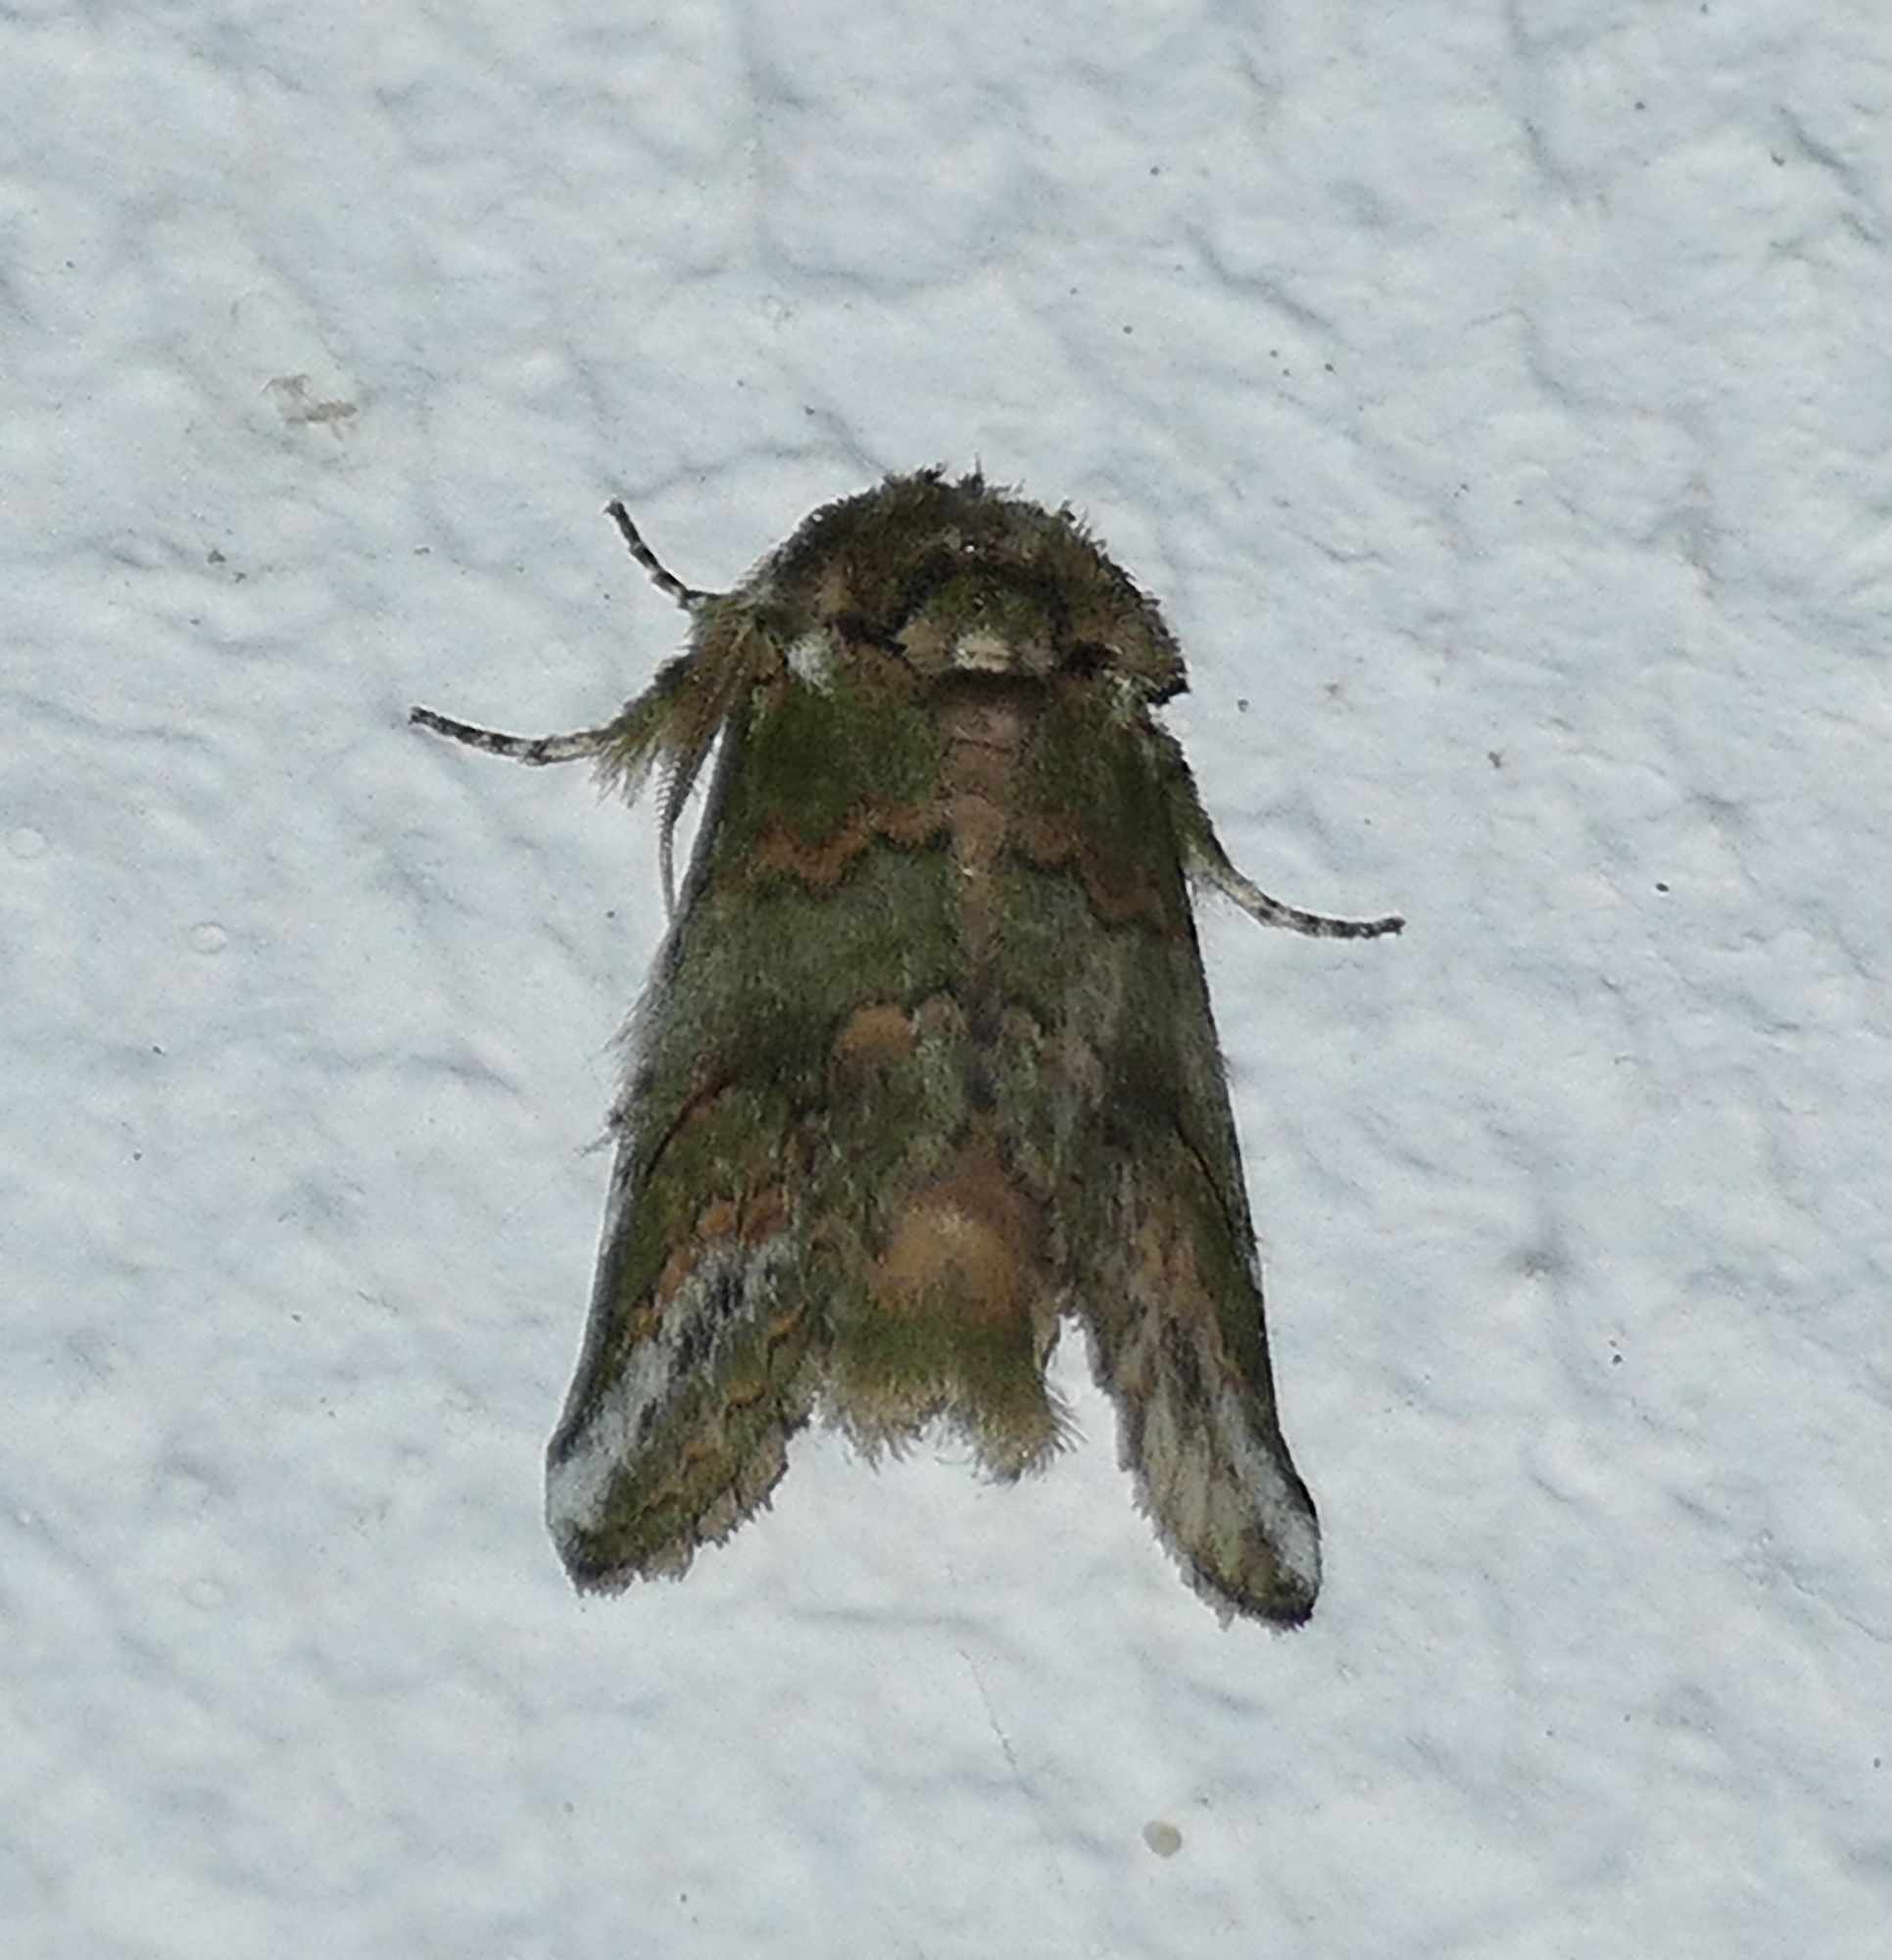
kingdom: Animalia
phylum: Arthropoda
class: Insecta
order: Lepidoptera
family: Notodontidae
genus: Rifargia
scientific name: Rifargia
